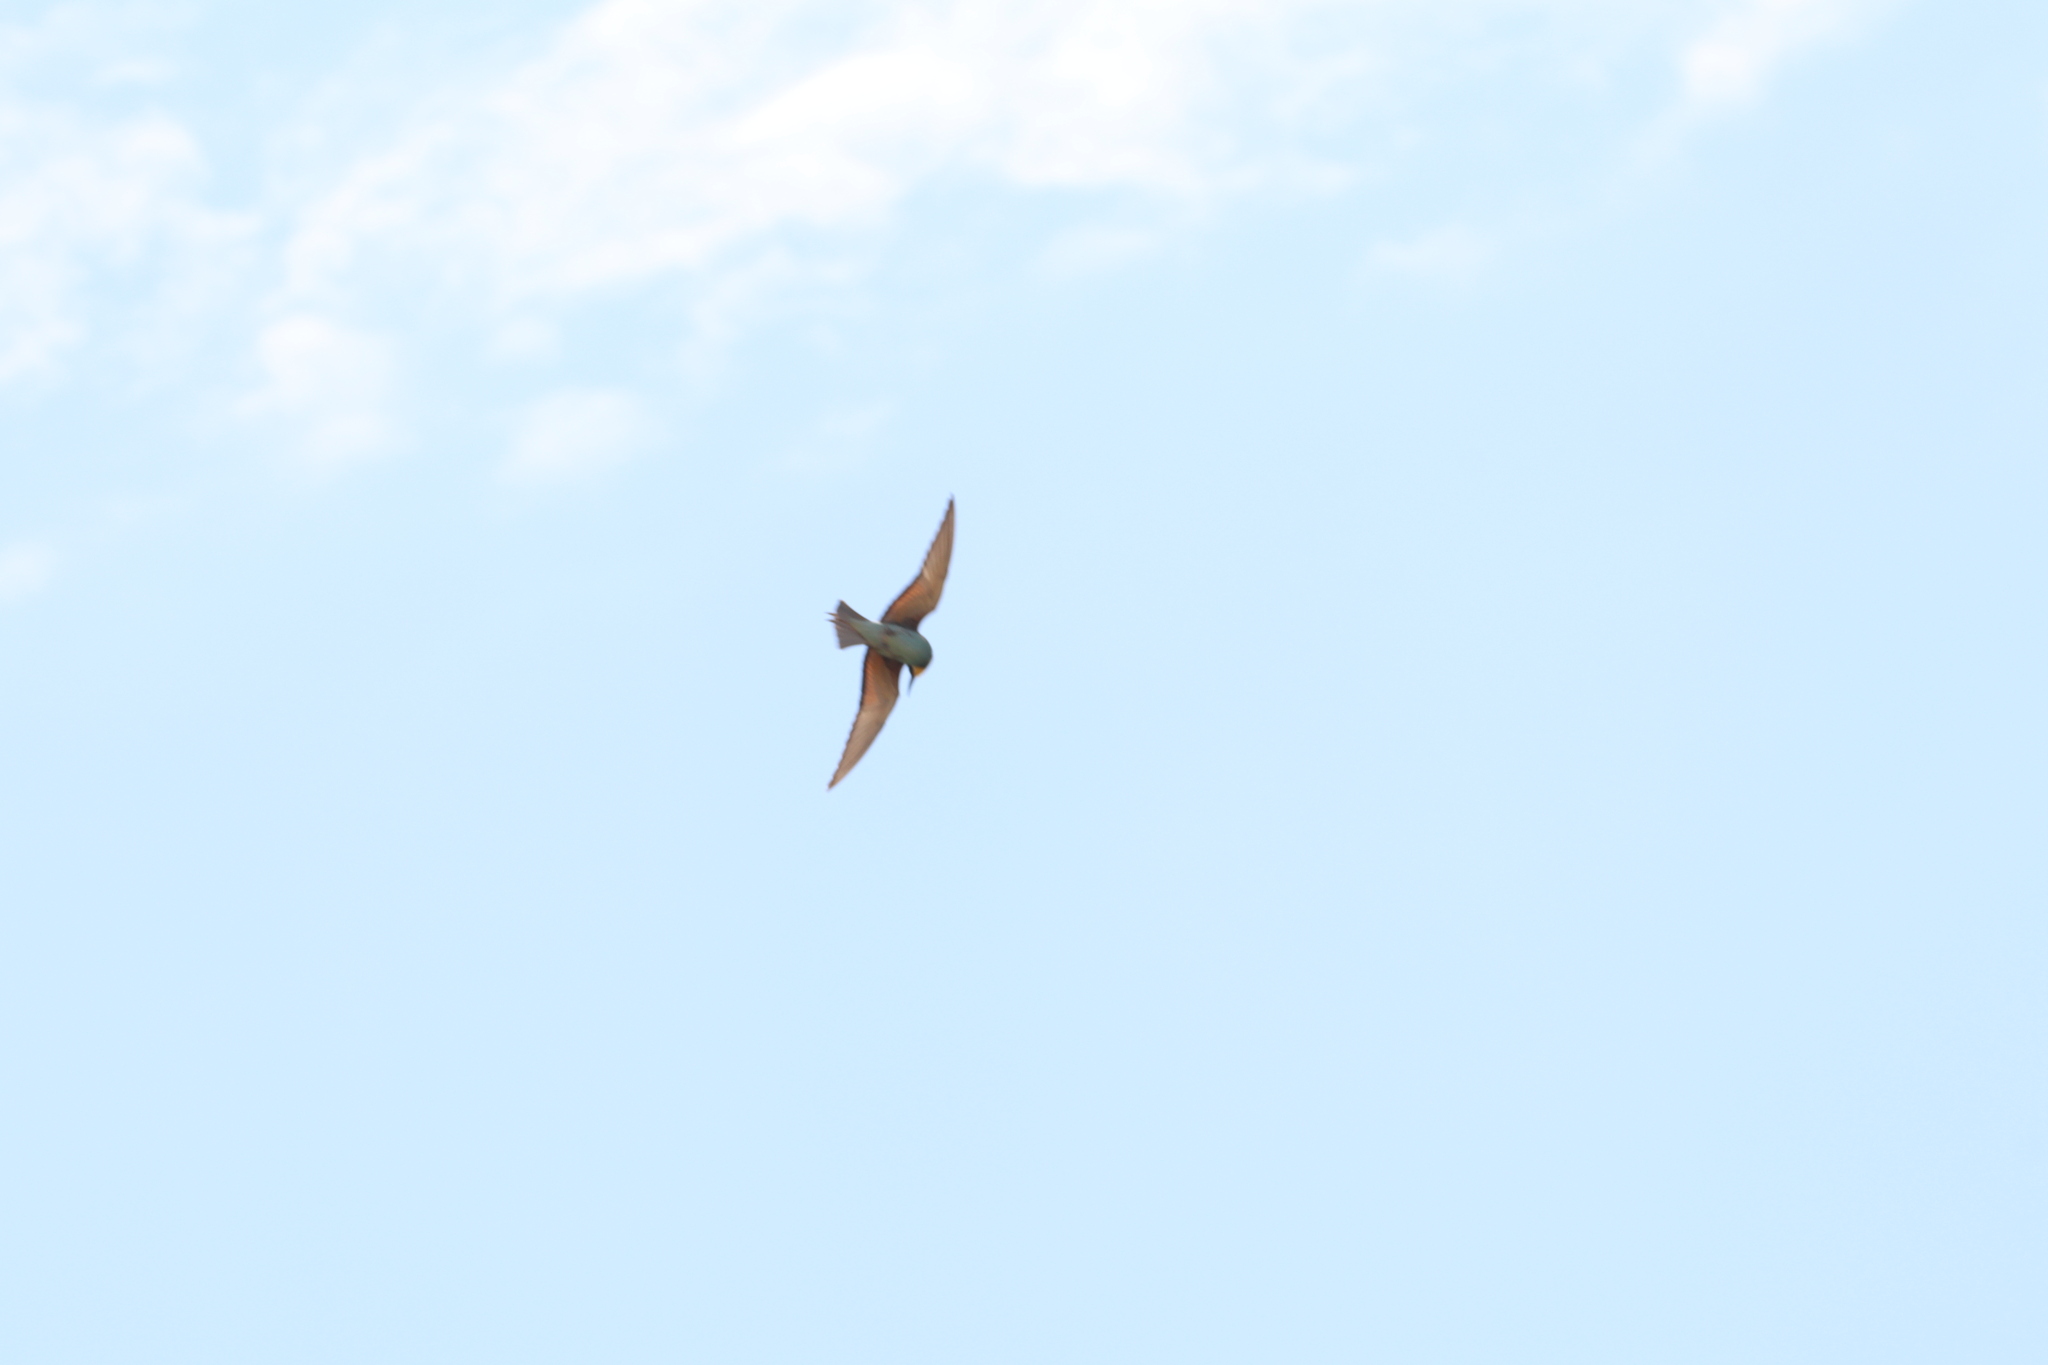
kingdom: Animalia
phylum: Chordata
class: Aves
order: Coraciiformes
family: Meropidae
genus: Merops
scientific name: Merops apiaster
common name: European bee-eater
